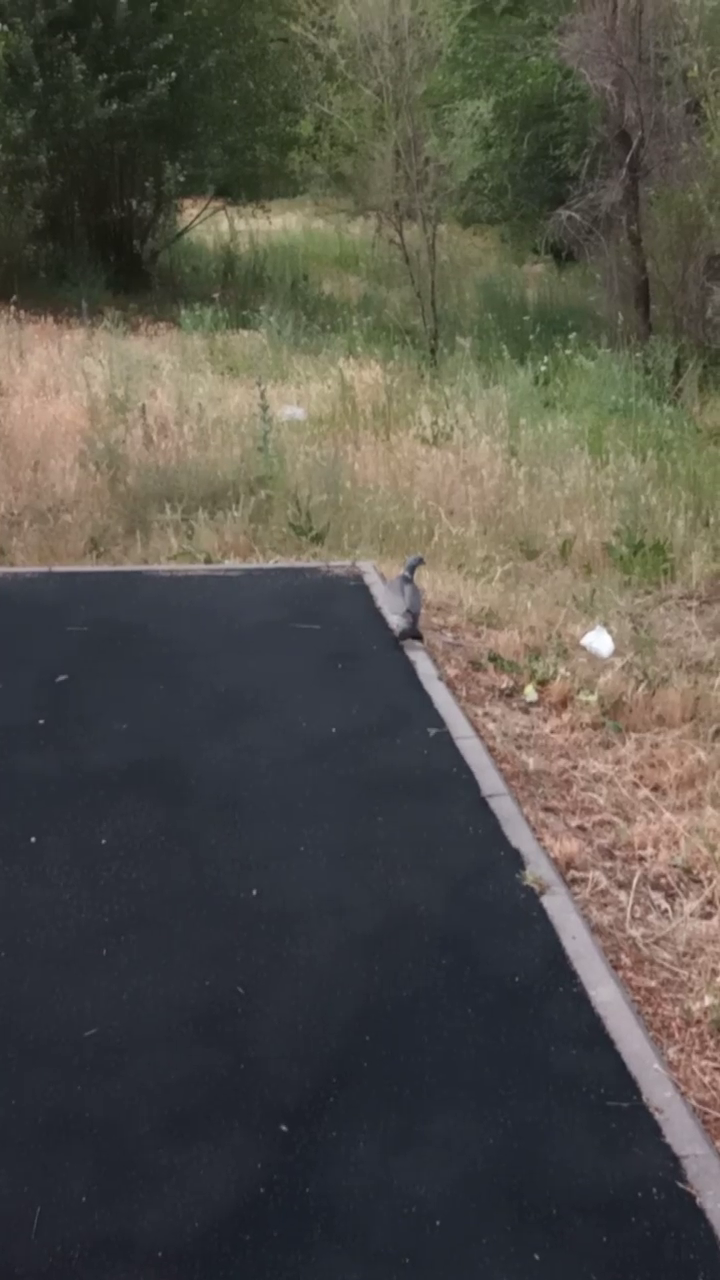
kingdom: Animalia
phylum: Chordata
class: Aves
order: Columbiformes
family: Columbidae
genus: Columba
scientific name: Columba palumbus
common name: Common wood pigeon
